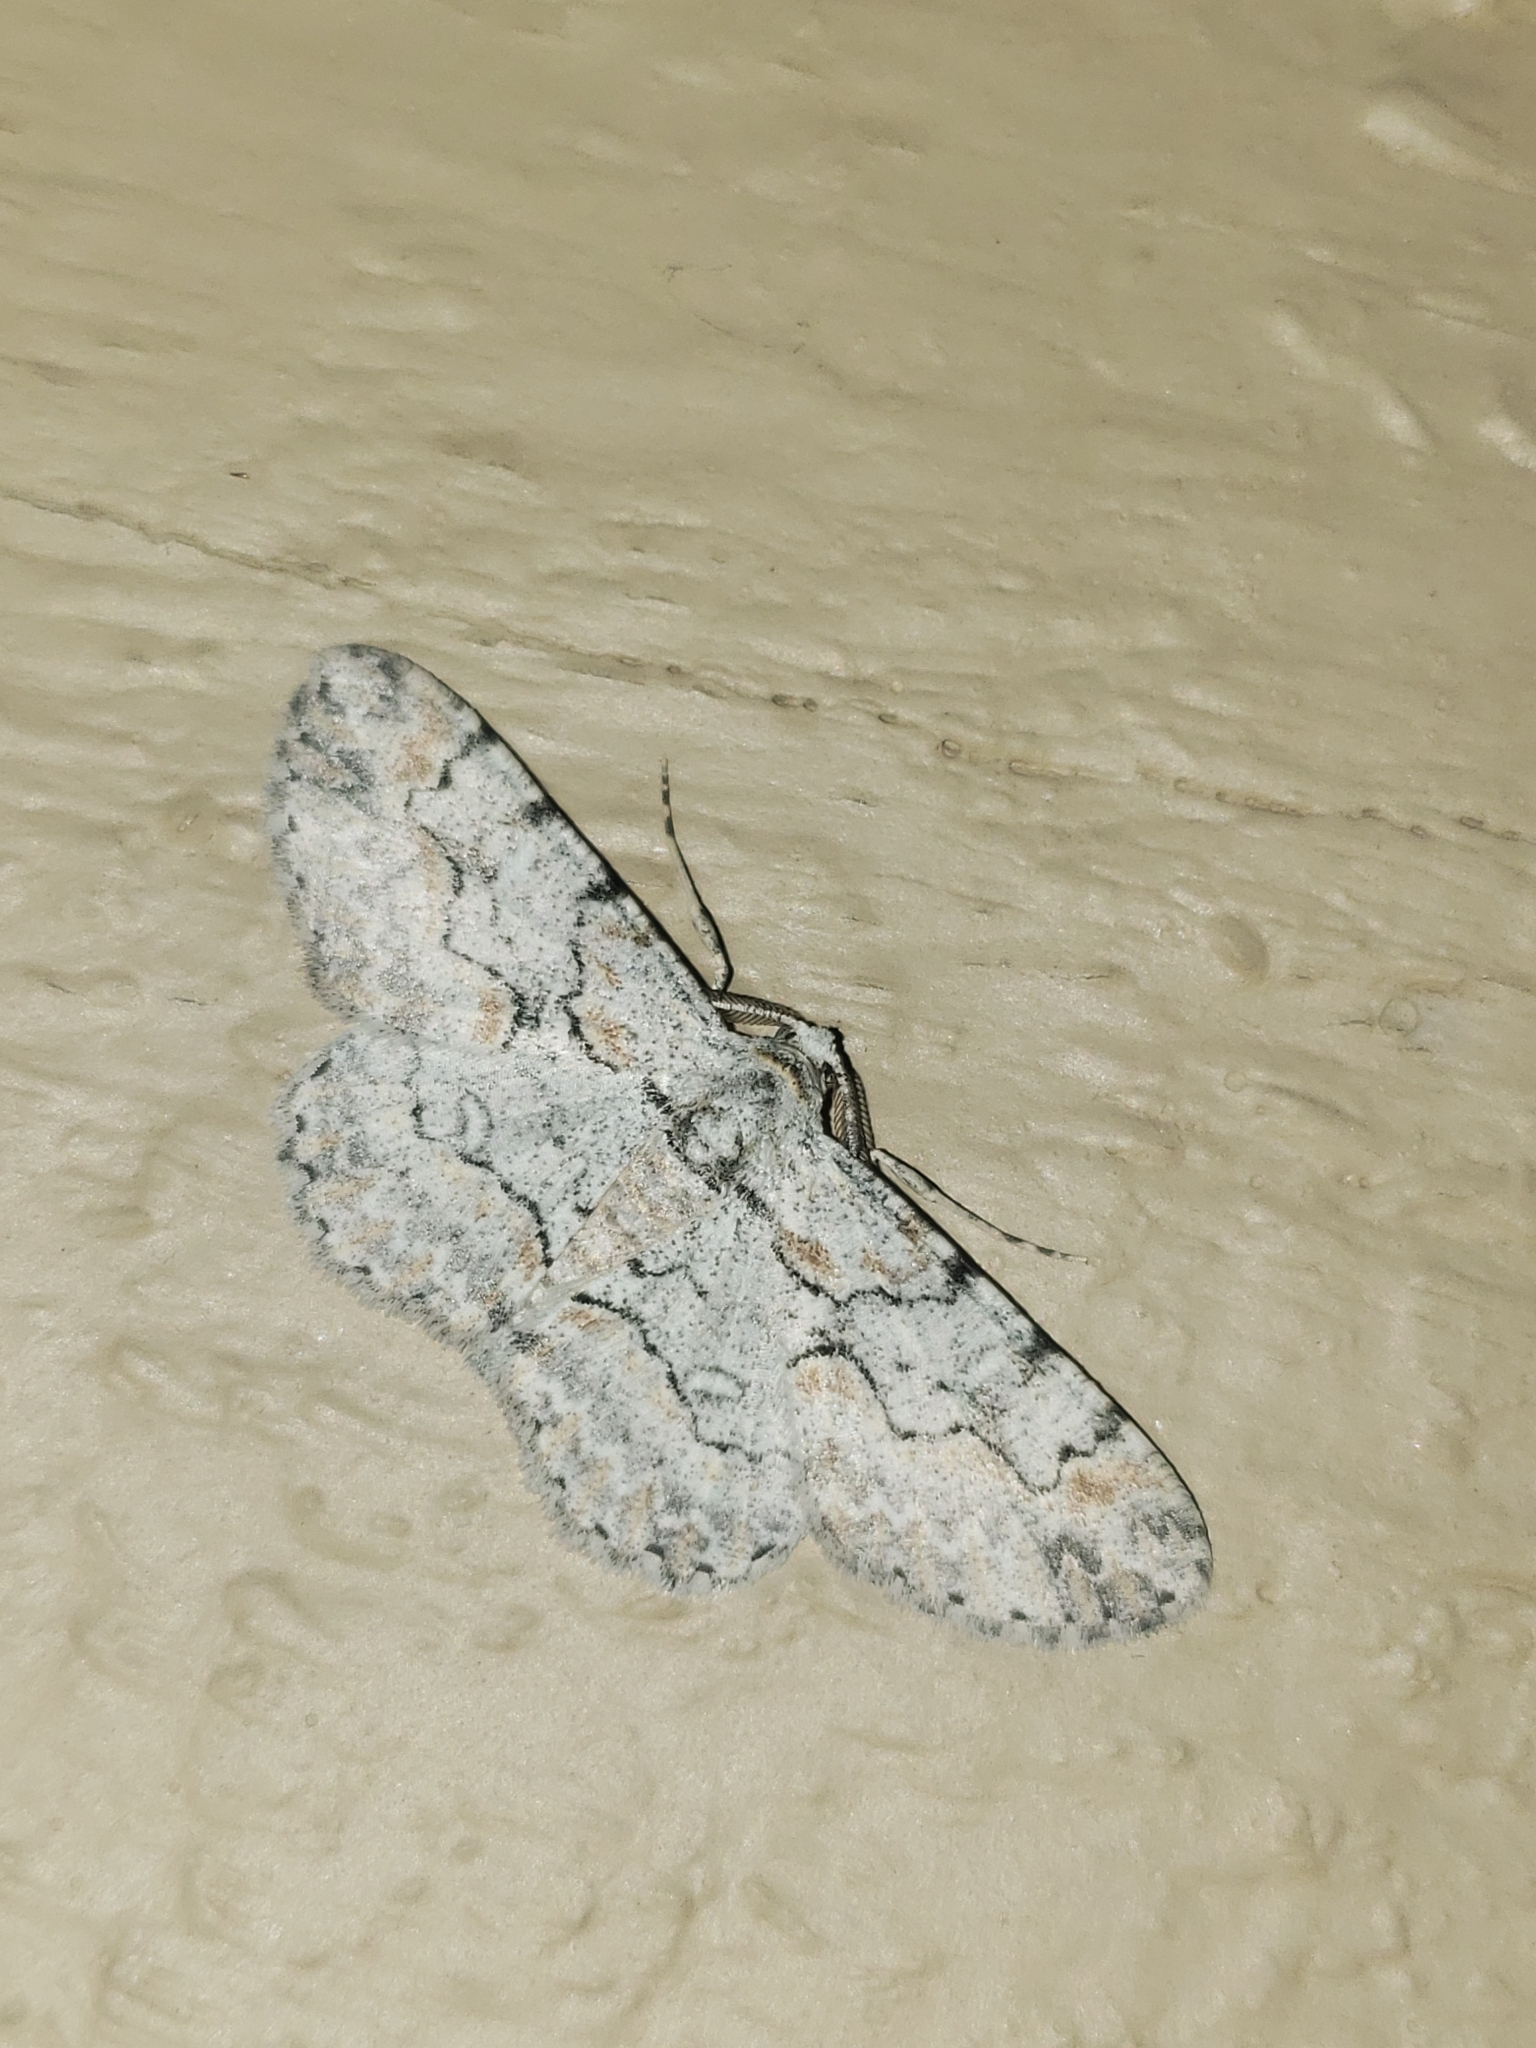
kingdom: Animalia
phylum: Arthropoda
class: Insecta
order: Lepidoptera
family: Geometridae
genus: Iridopsis
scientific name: Iridopsis defectaria
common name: Brown-shaded gray
